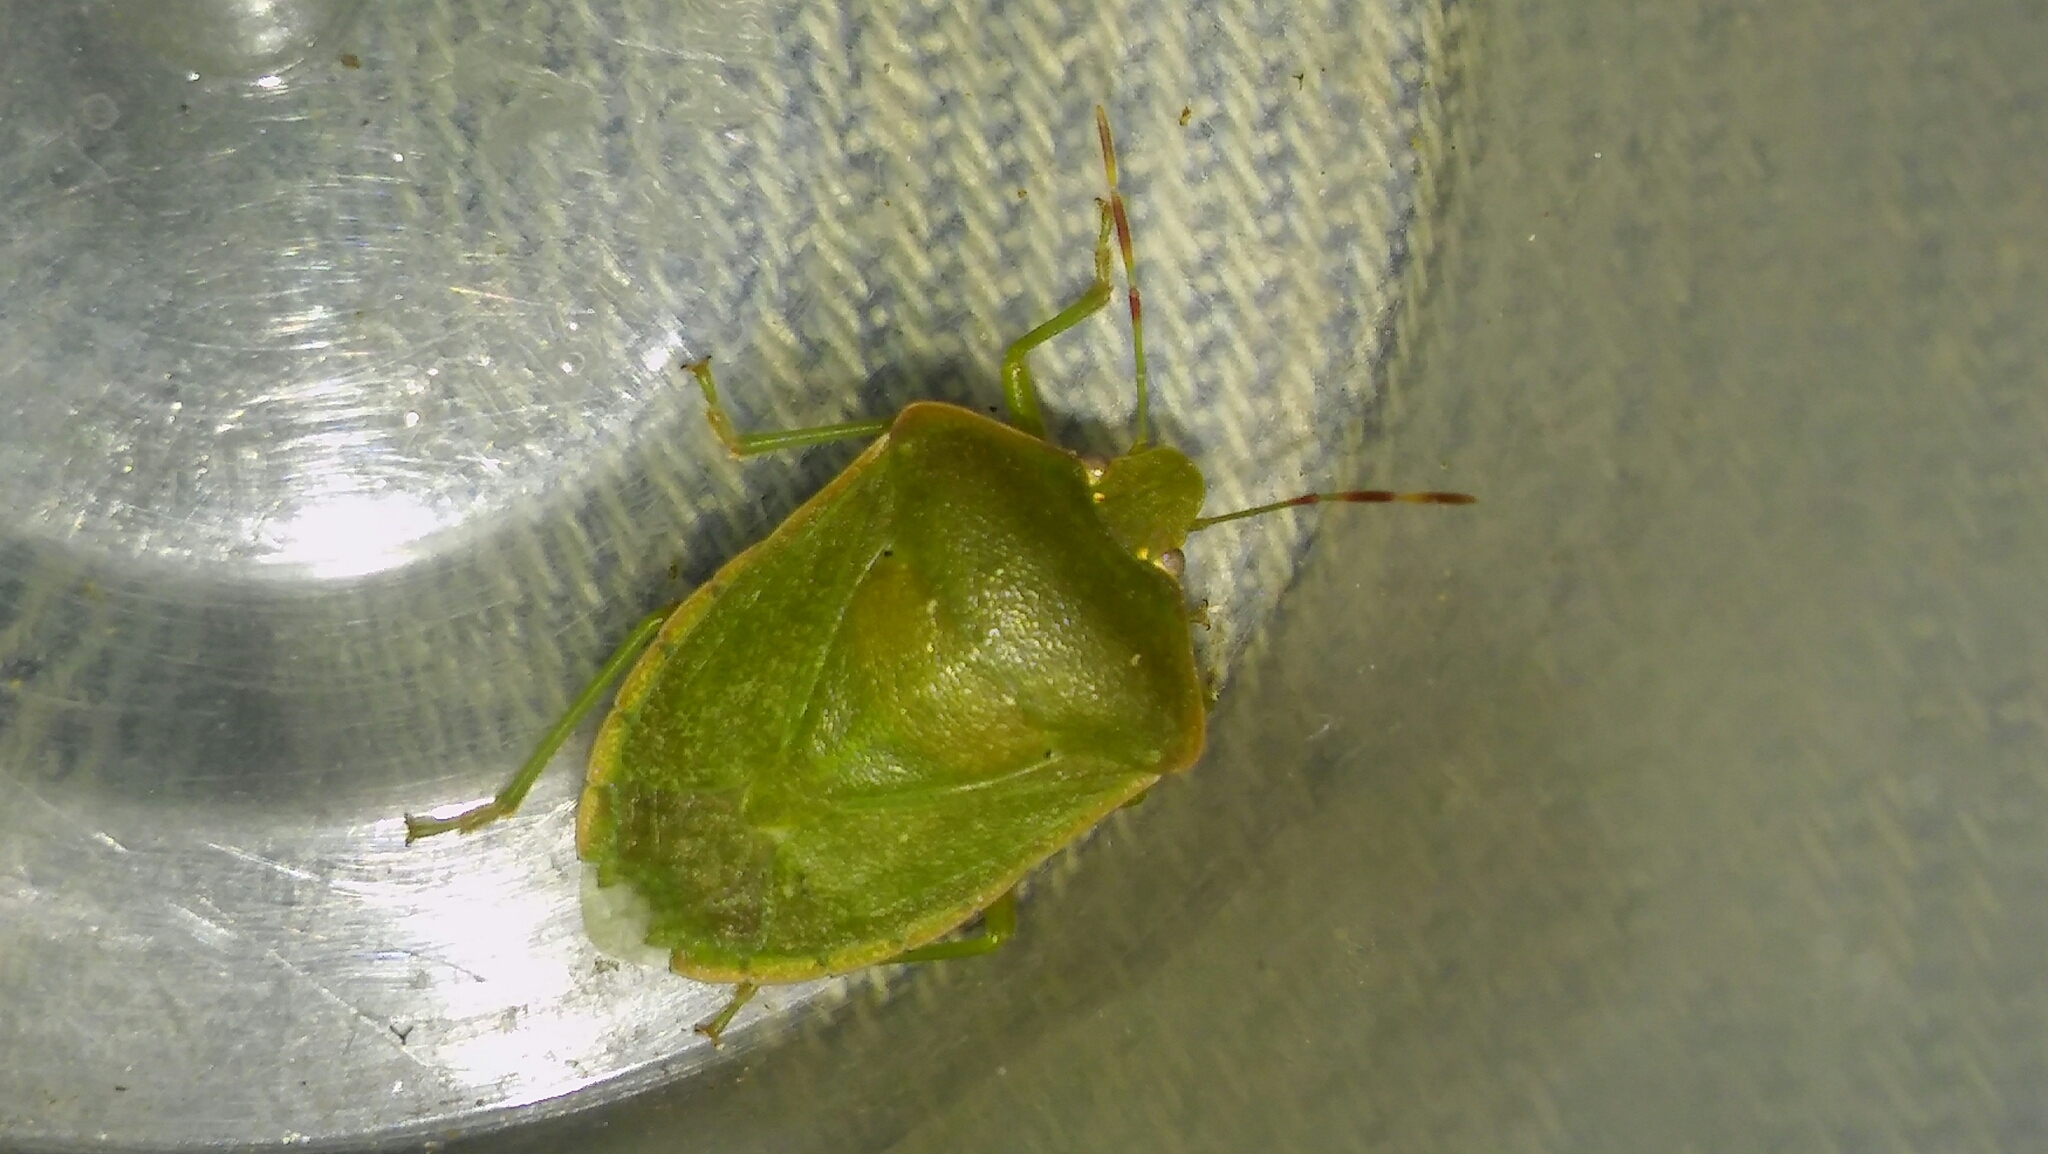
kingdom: Animalia
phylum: Arthropoda
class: Insecta
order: Hemiptera
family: Pentatomidae
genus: Nezara
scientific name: Nezara viridula
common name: Southern green stink bug
